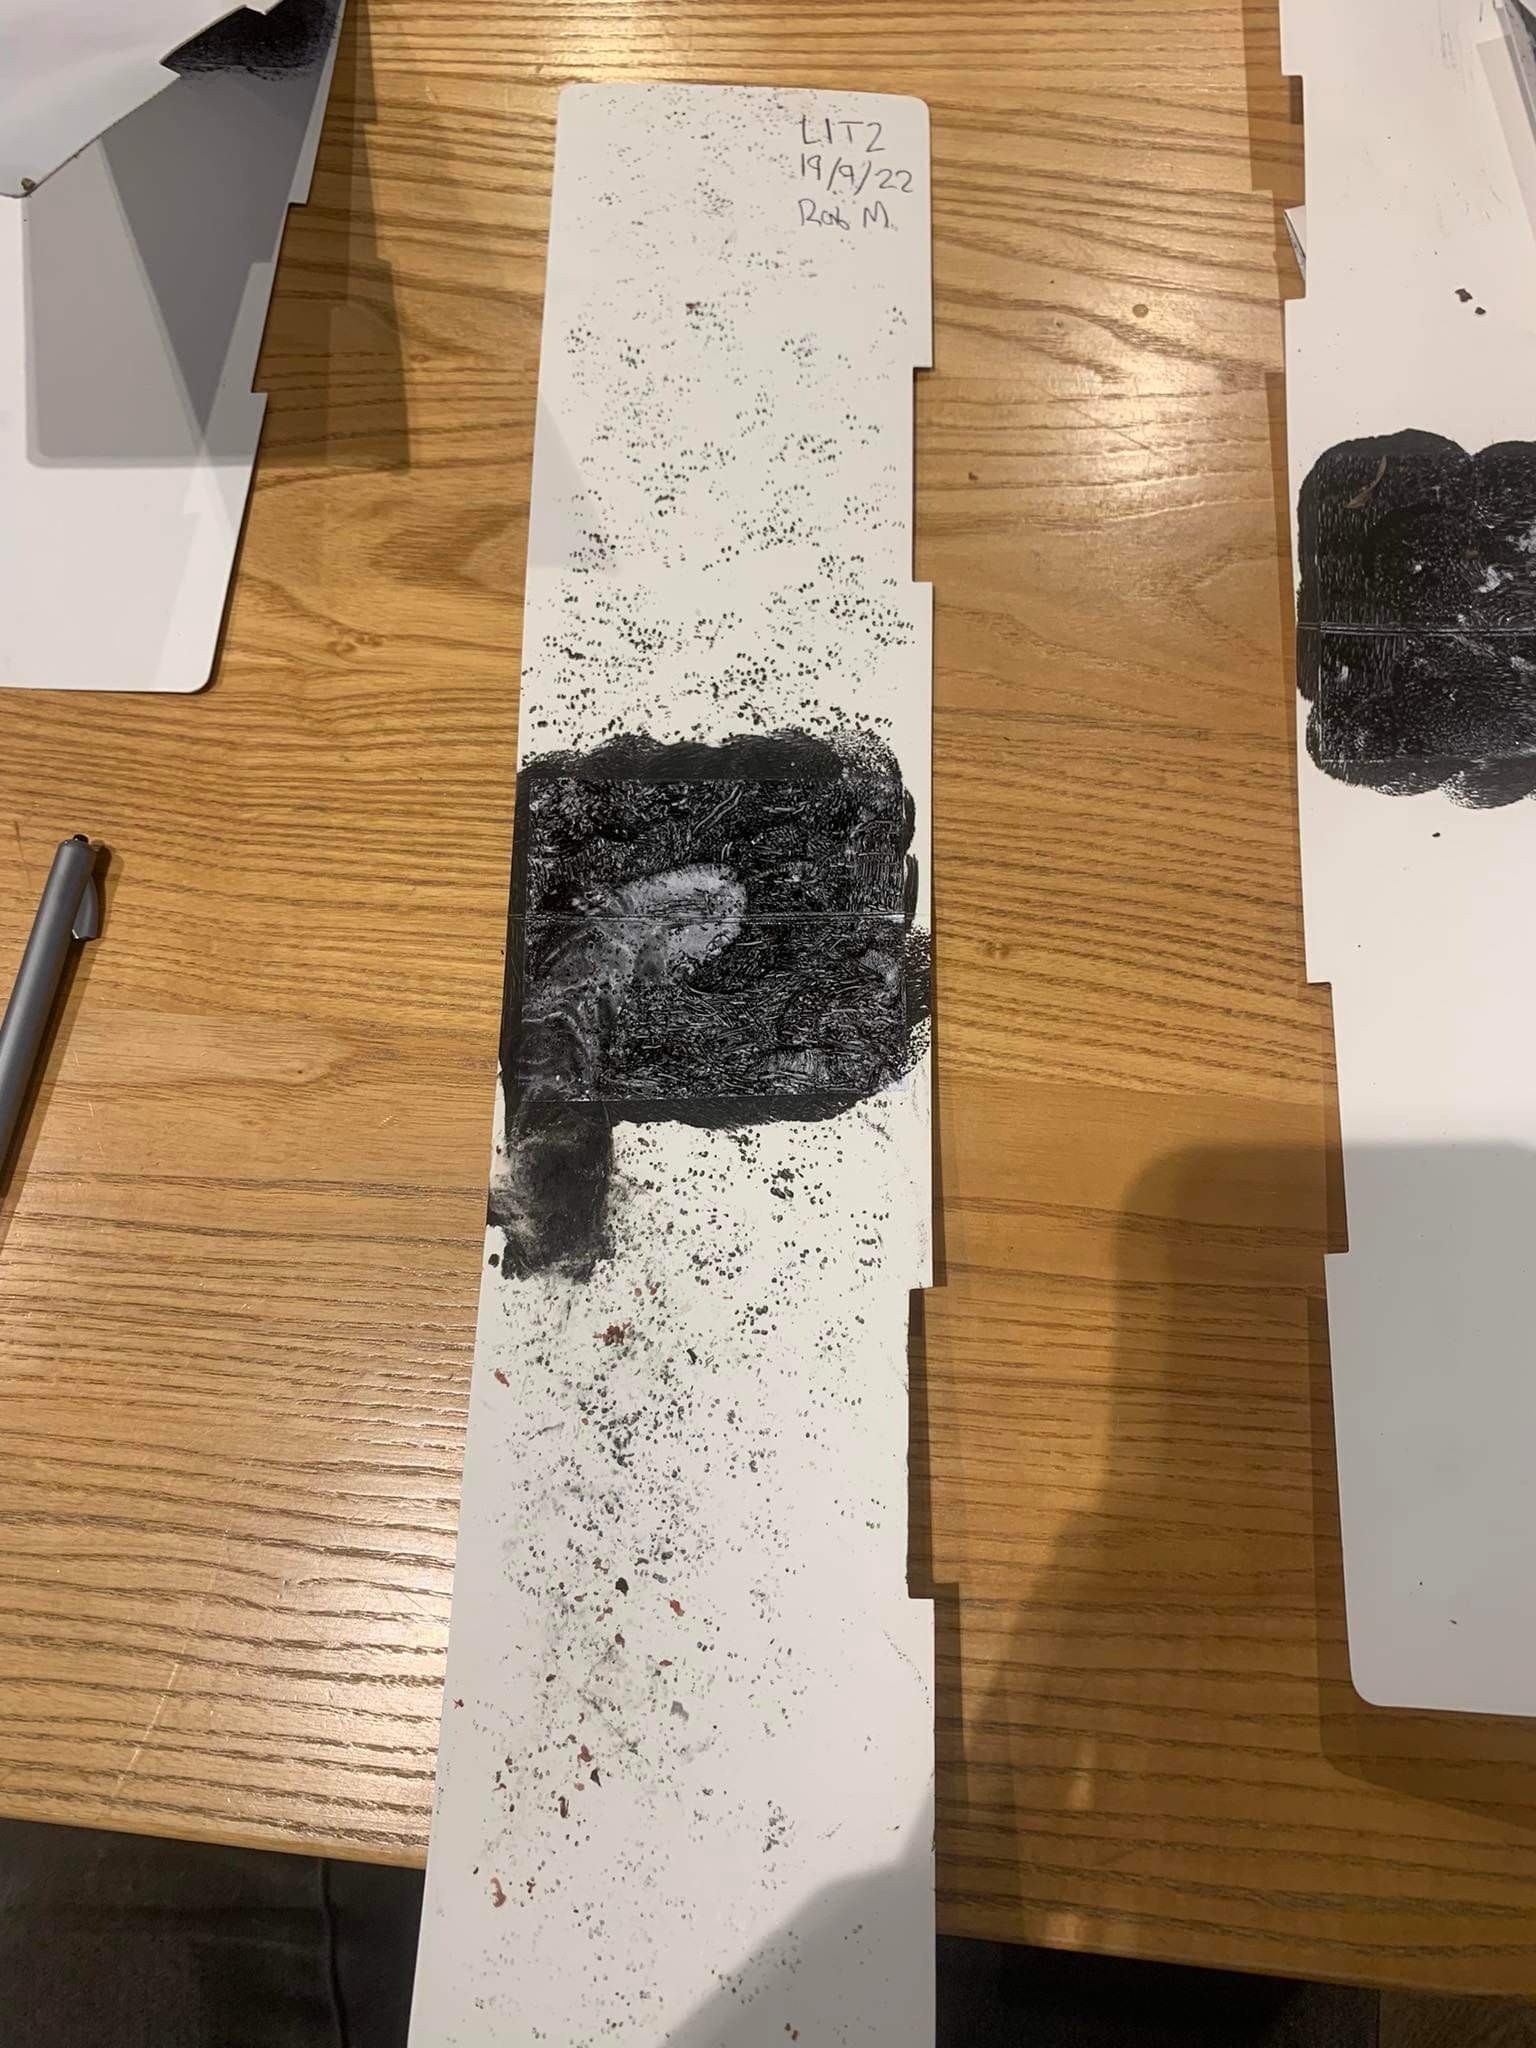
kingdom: Animalia
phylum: Chordata
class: Mammalia
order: Rodentia
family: Muridae
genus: Mus
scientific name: Mus musculus
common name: House mouse
